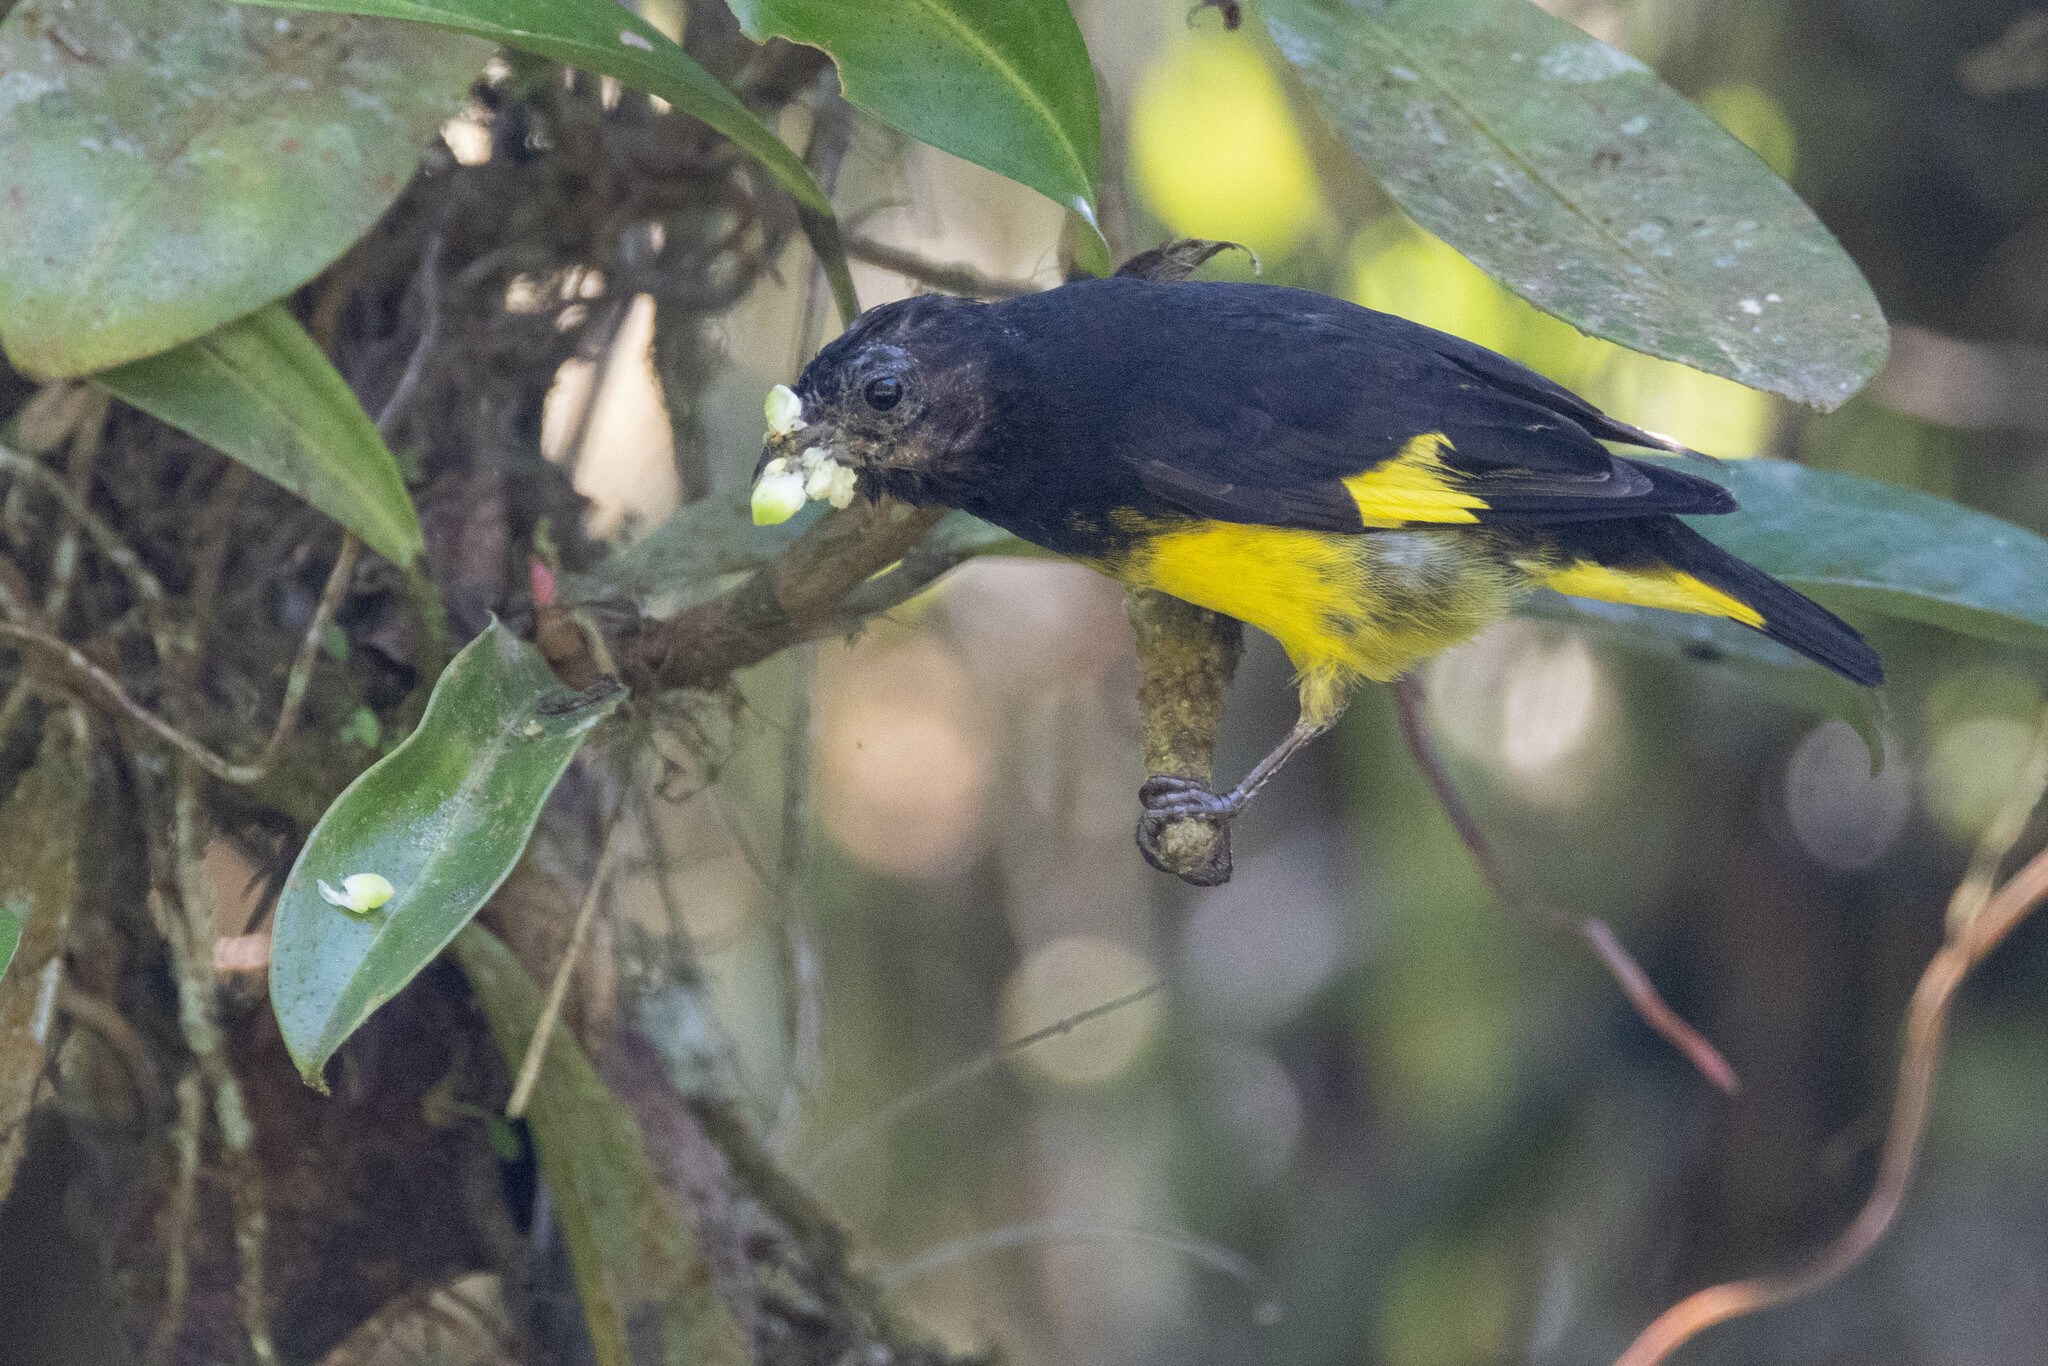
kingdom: Animalia
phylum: Chordata
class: Aves
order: Passeriformes
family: Fringillidae
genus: Spinus
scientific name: Spinus xanthogastrus
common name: Yellow-bellied siskin
